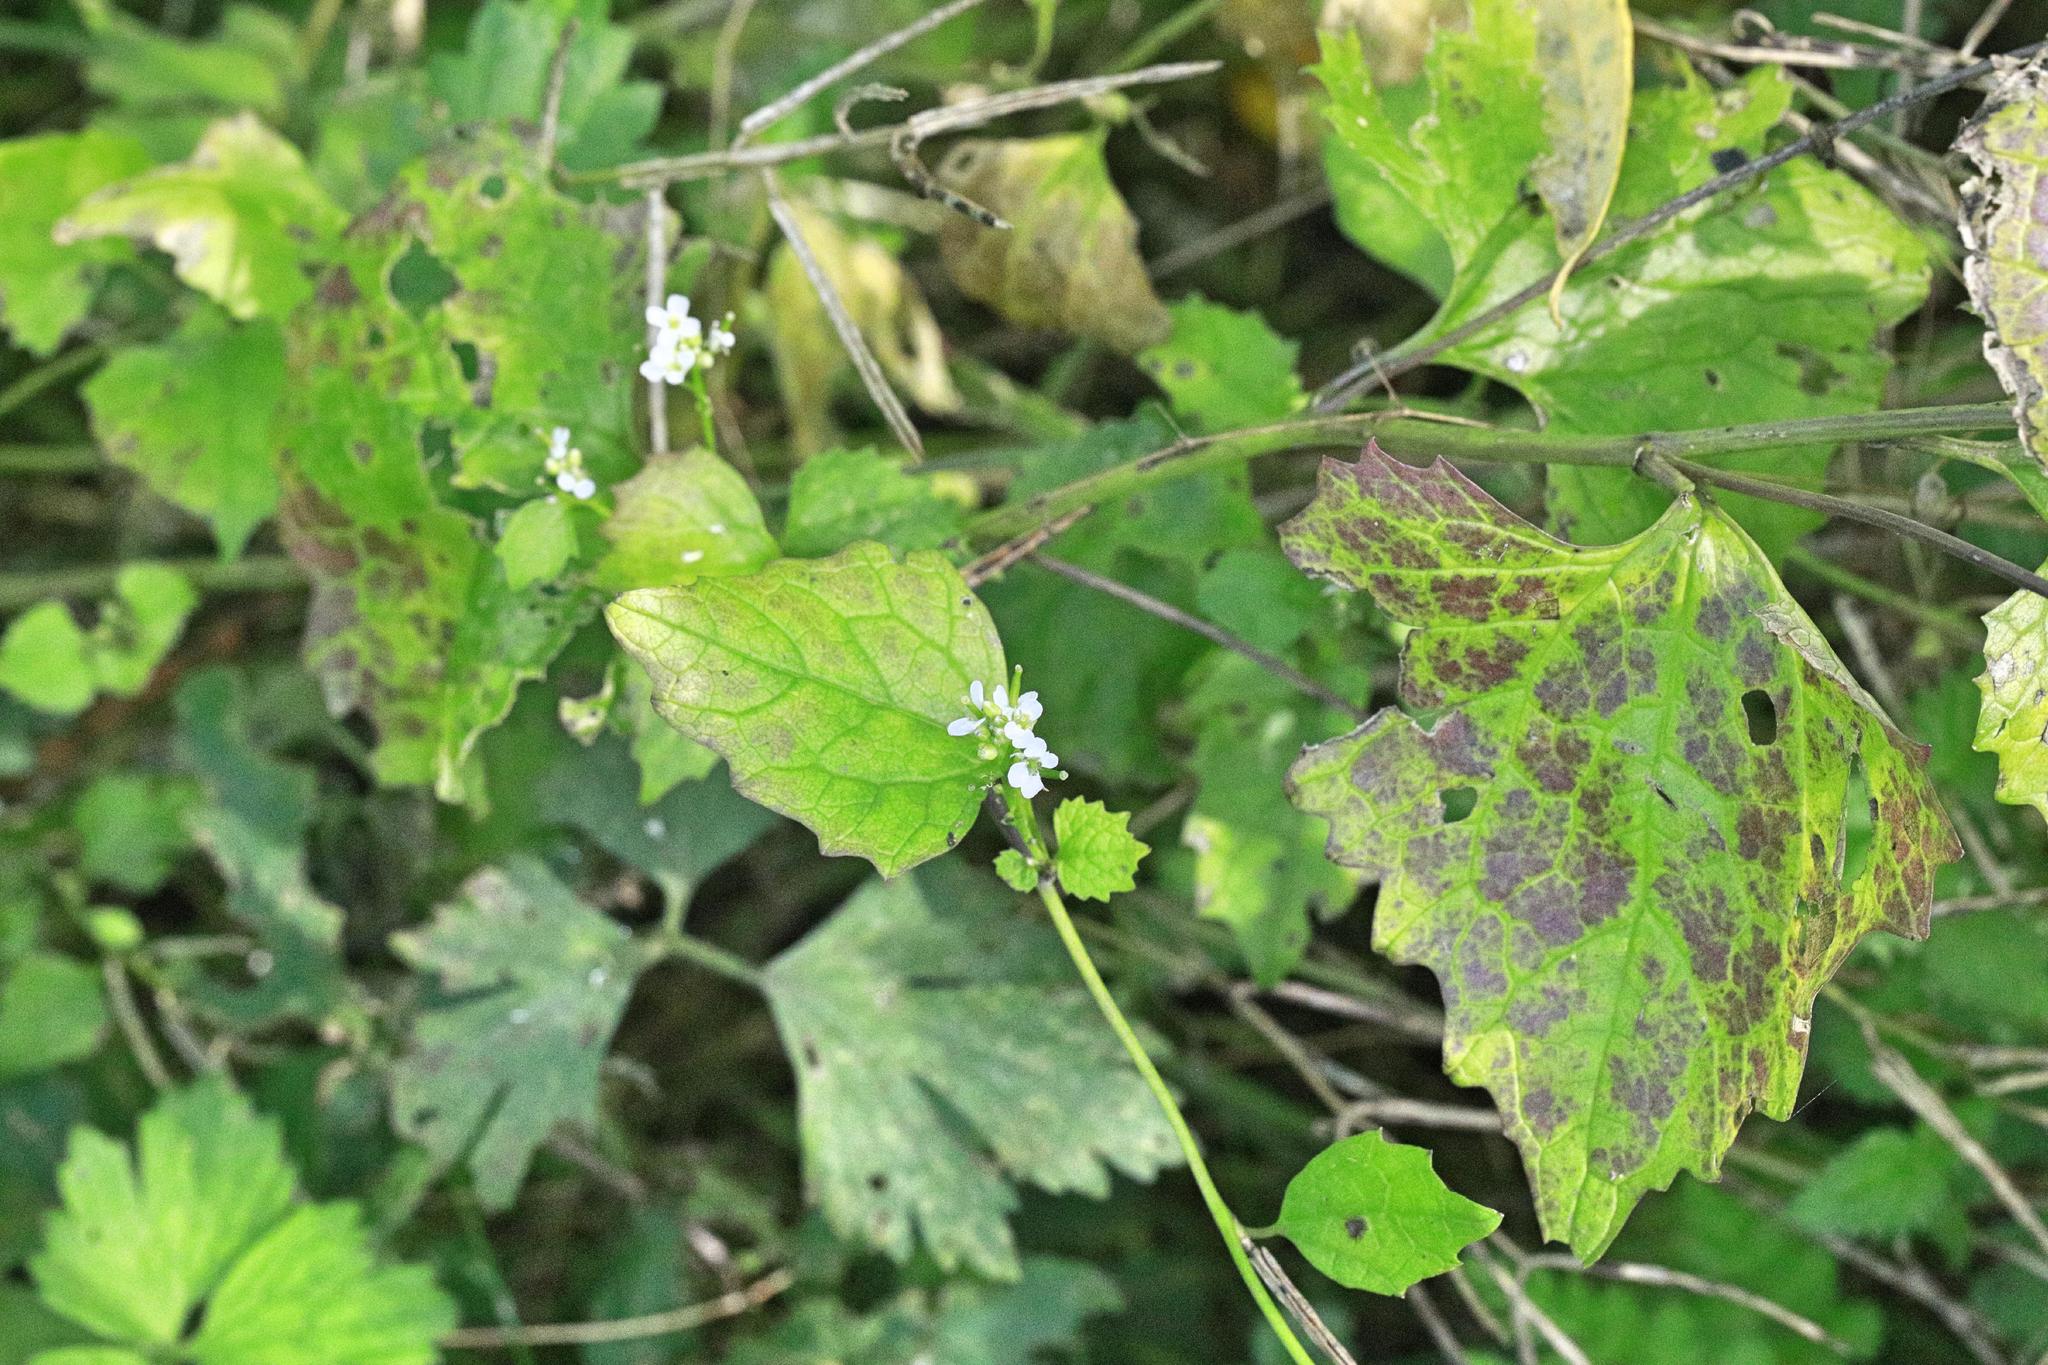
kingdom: Plantae
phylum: Tracheophyta
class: Magnoliopsida
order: Brassicales
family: Brassicaceae
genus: Alliaria
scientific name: Alliaria petiolata
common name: Garlic mustard
